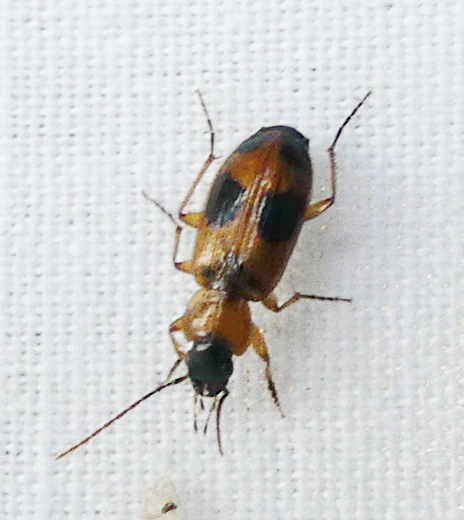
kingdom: Animalia
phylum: Arthropoda
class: Insecta
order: Coleoptera
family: Carabidae
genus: Badister
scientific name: Badister neopulchellus
